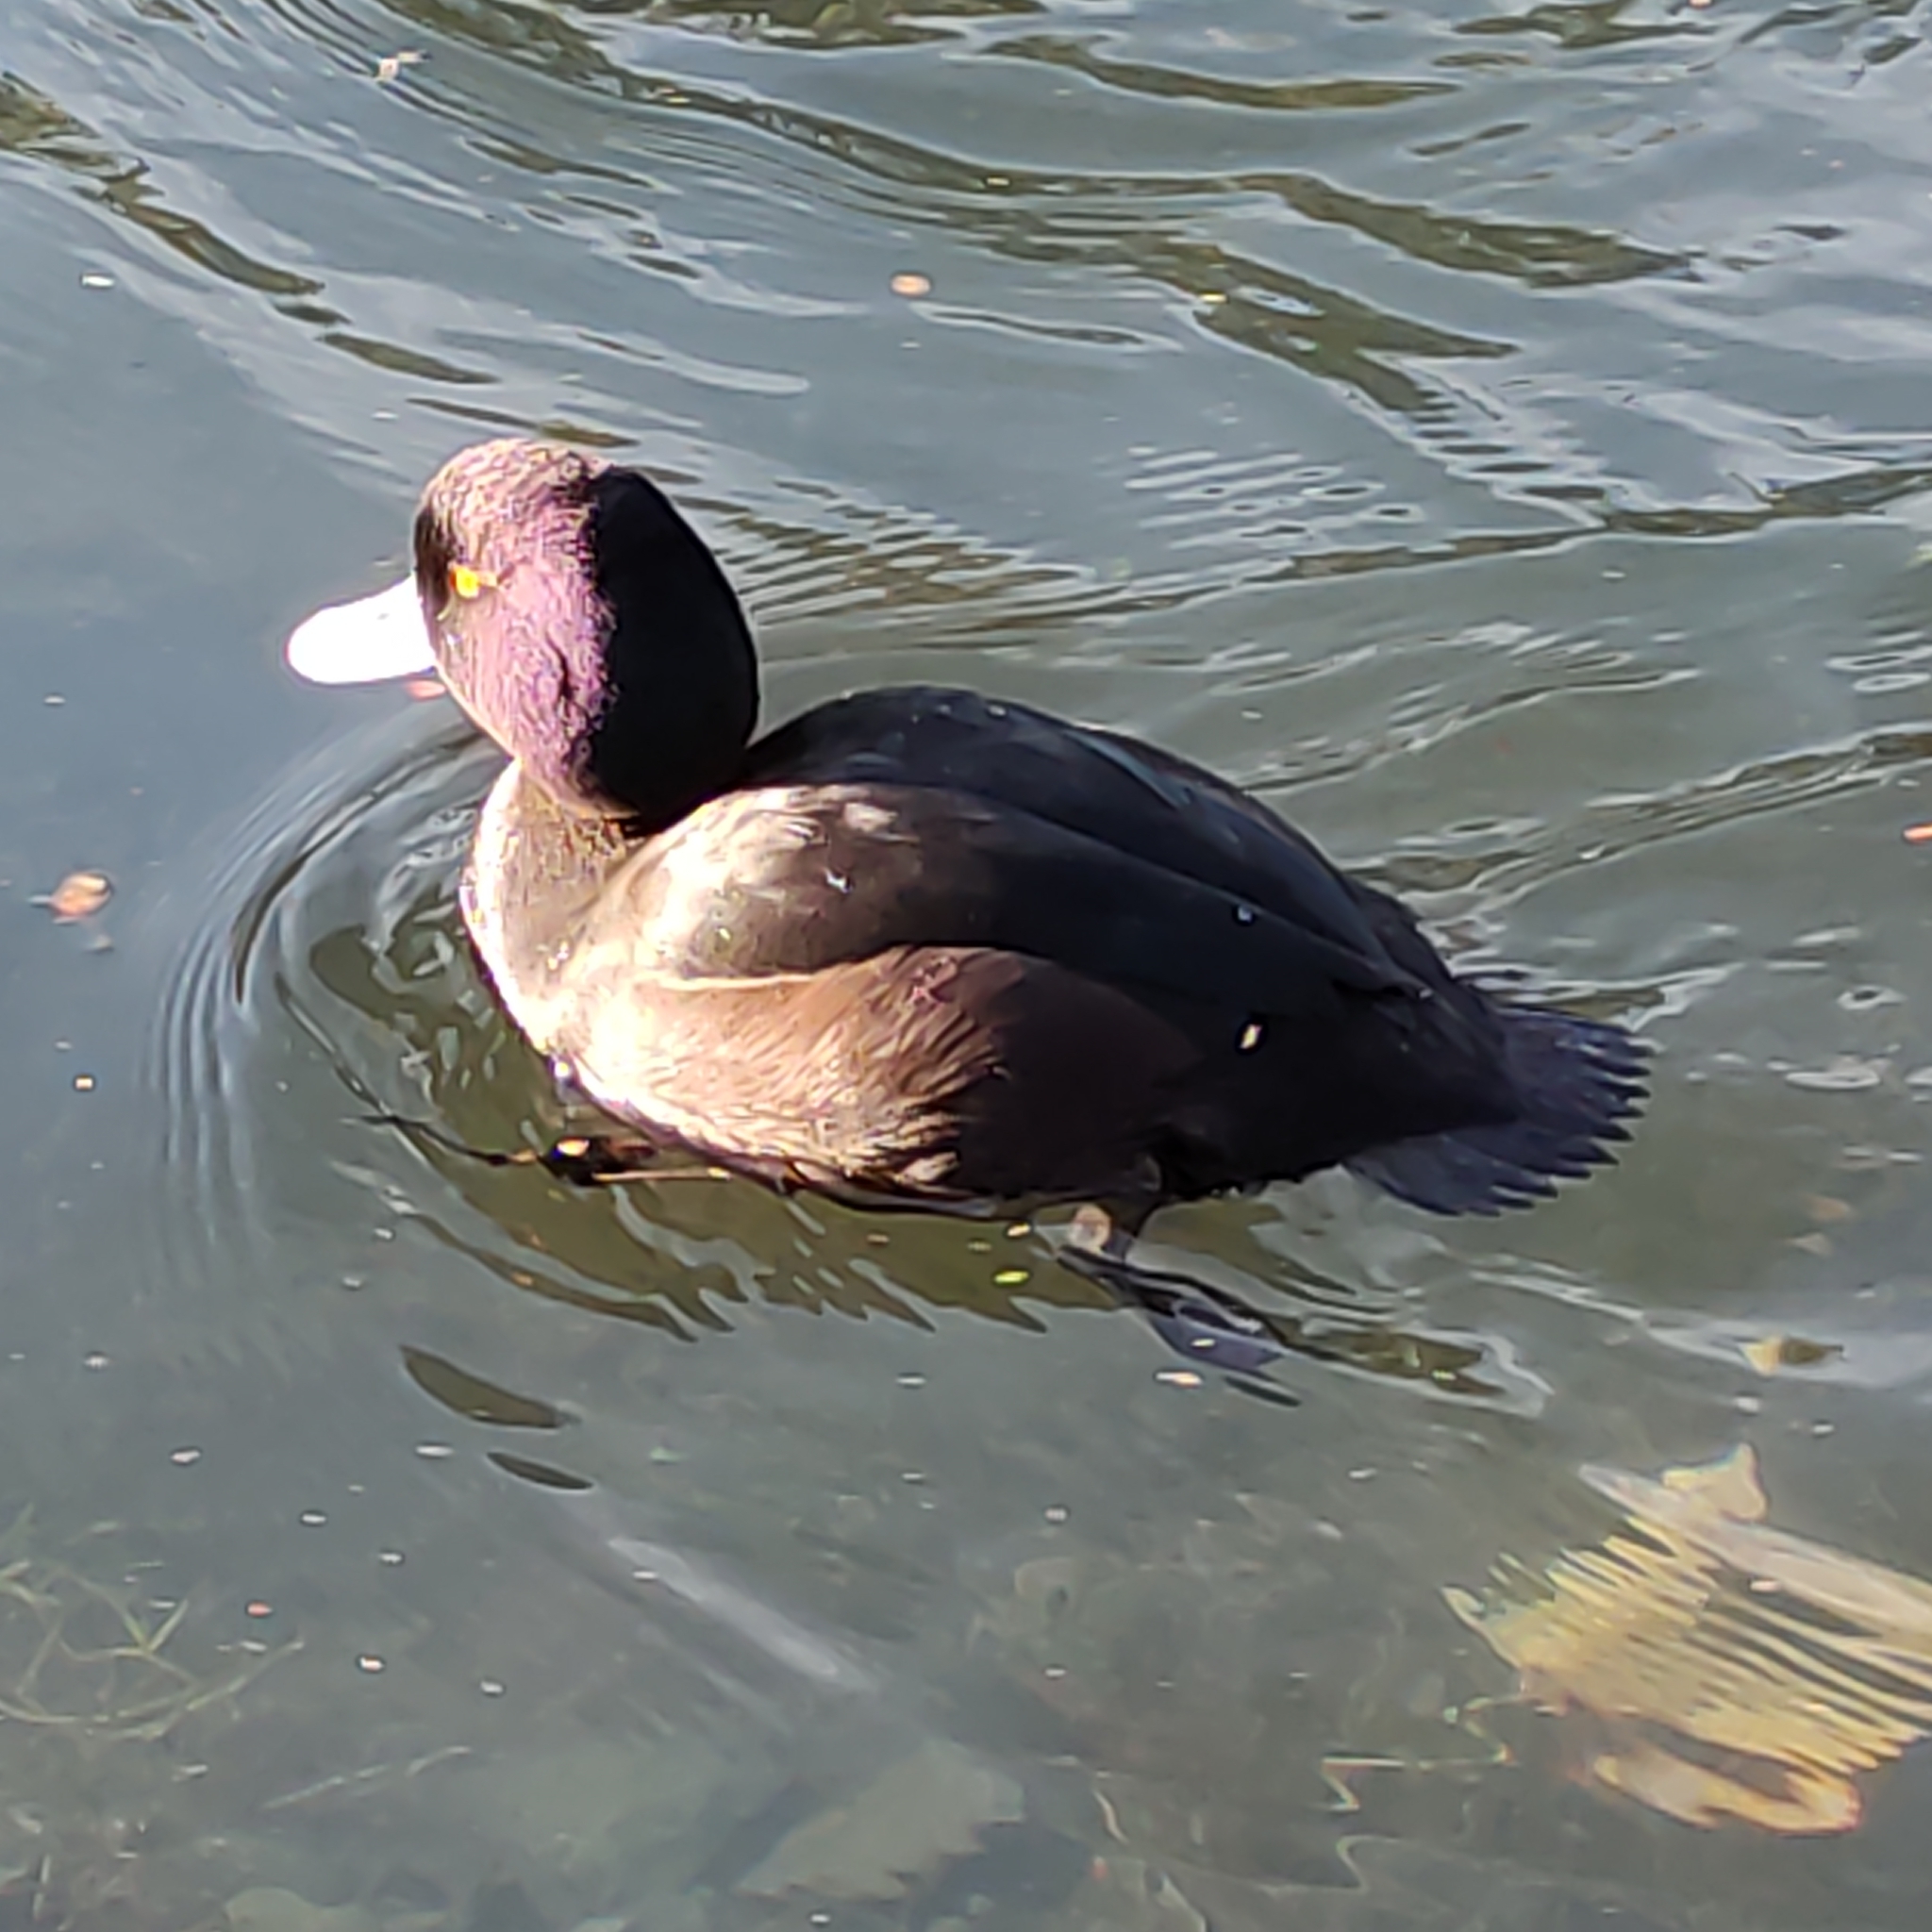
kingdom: Animalia
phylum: Chordata
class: Aves
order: Anseriformes
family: Anatidae
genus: Aythya
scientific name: Aythya novaeseelandiae
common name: New zealand scaup
